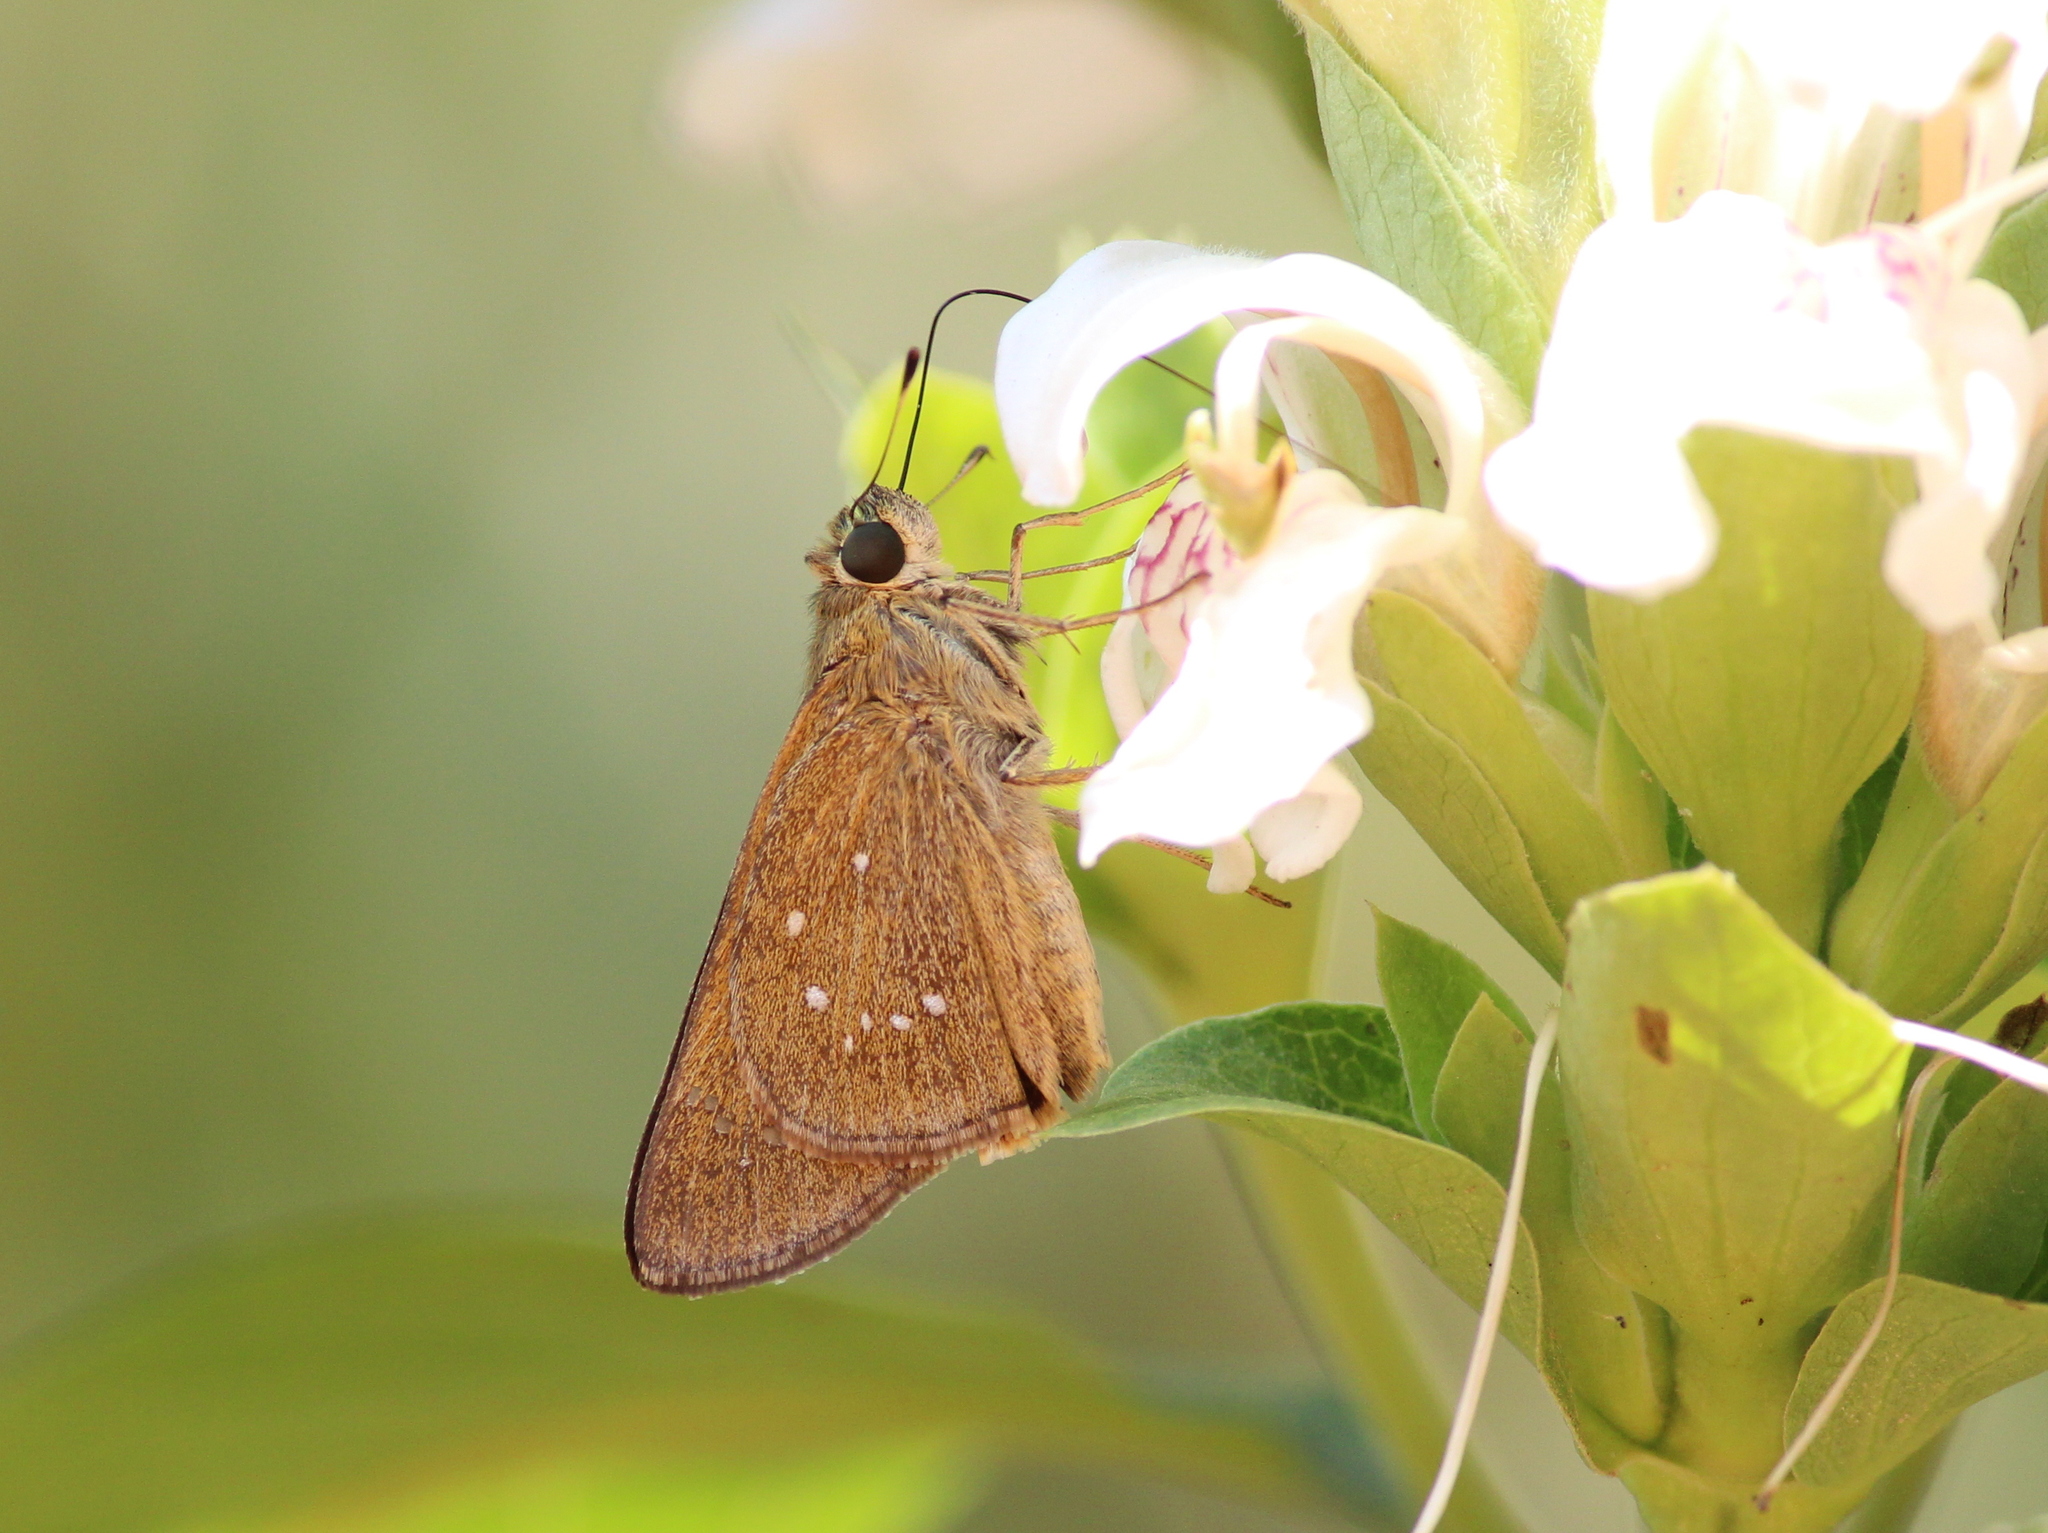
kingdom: Animalia
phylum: Arthropoda
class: Insecta
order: Lepidoptera
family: Hesperiidae
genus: Pelopidas
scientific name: Pelopidas mathias
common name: Black-branded swift
